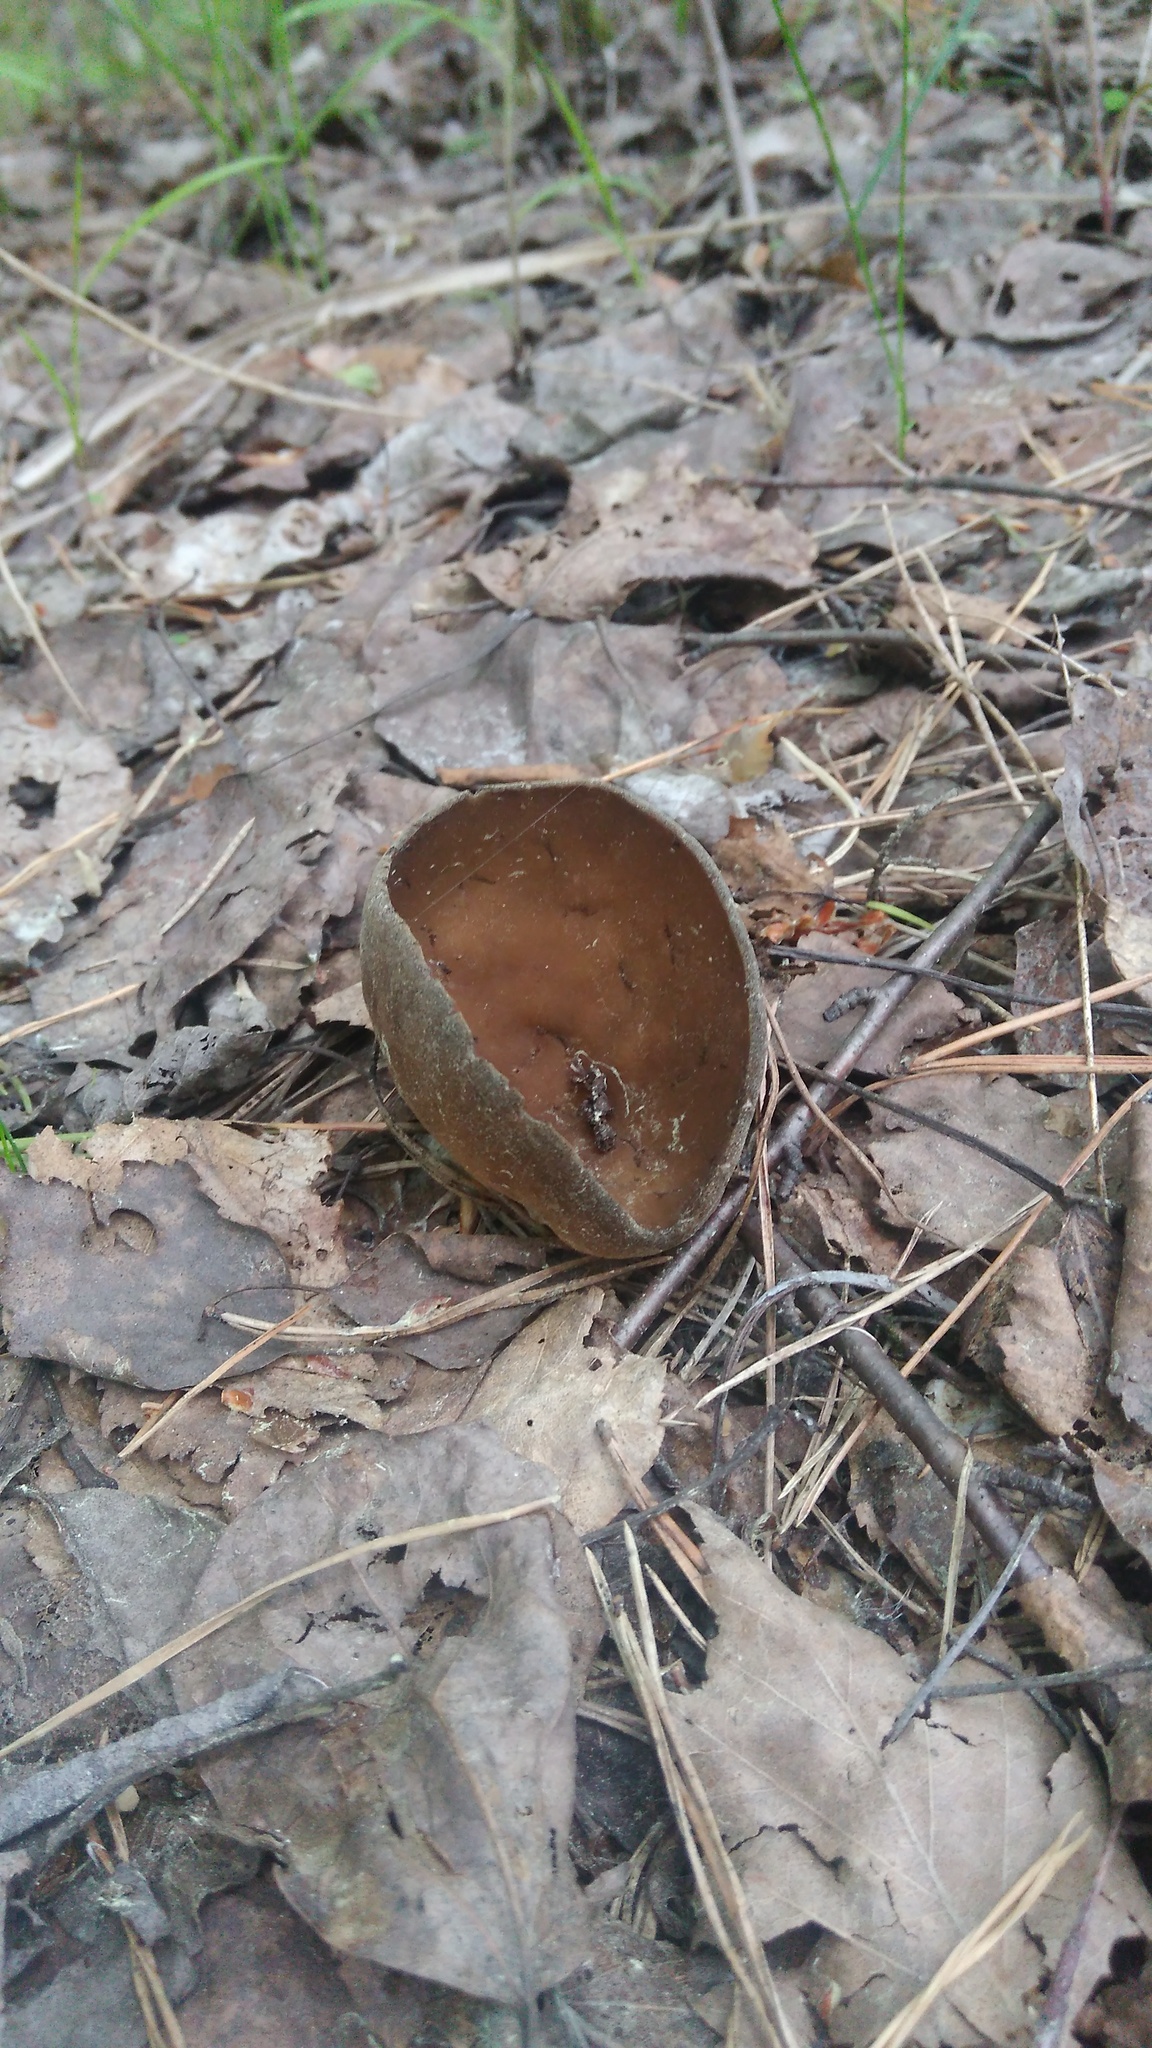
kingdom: Fungi
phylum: Ascomycota
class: Pezizomycetes
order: Pezizales
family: Helvellaceae
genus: Helvella
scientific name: Helvella acetabulum
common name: Vinegar cup
